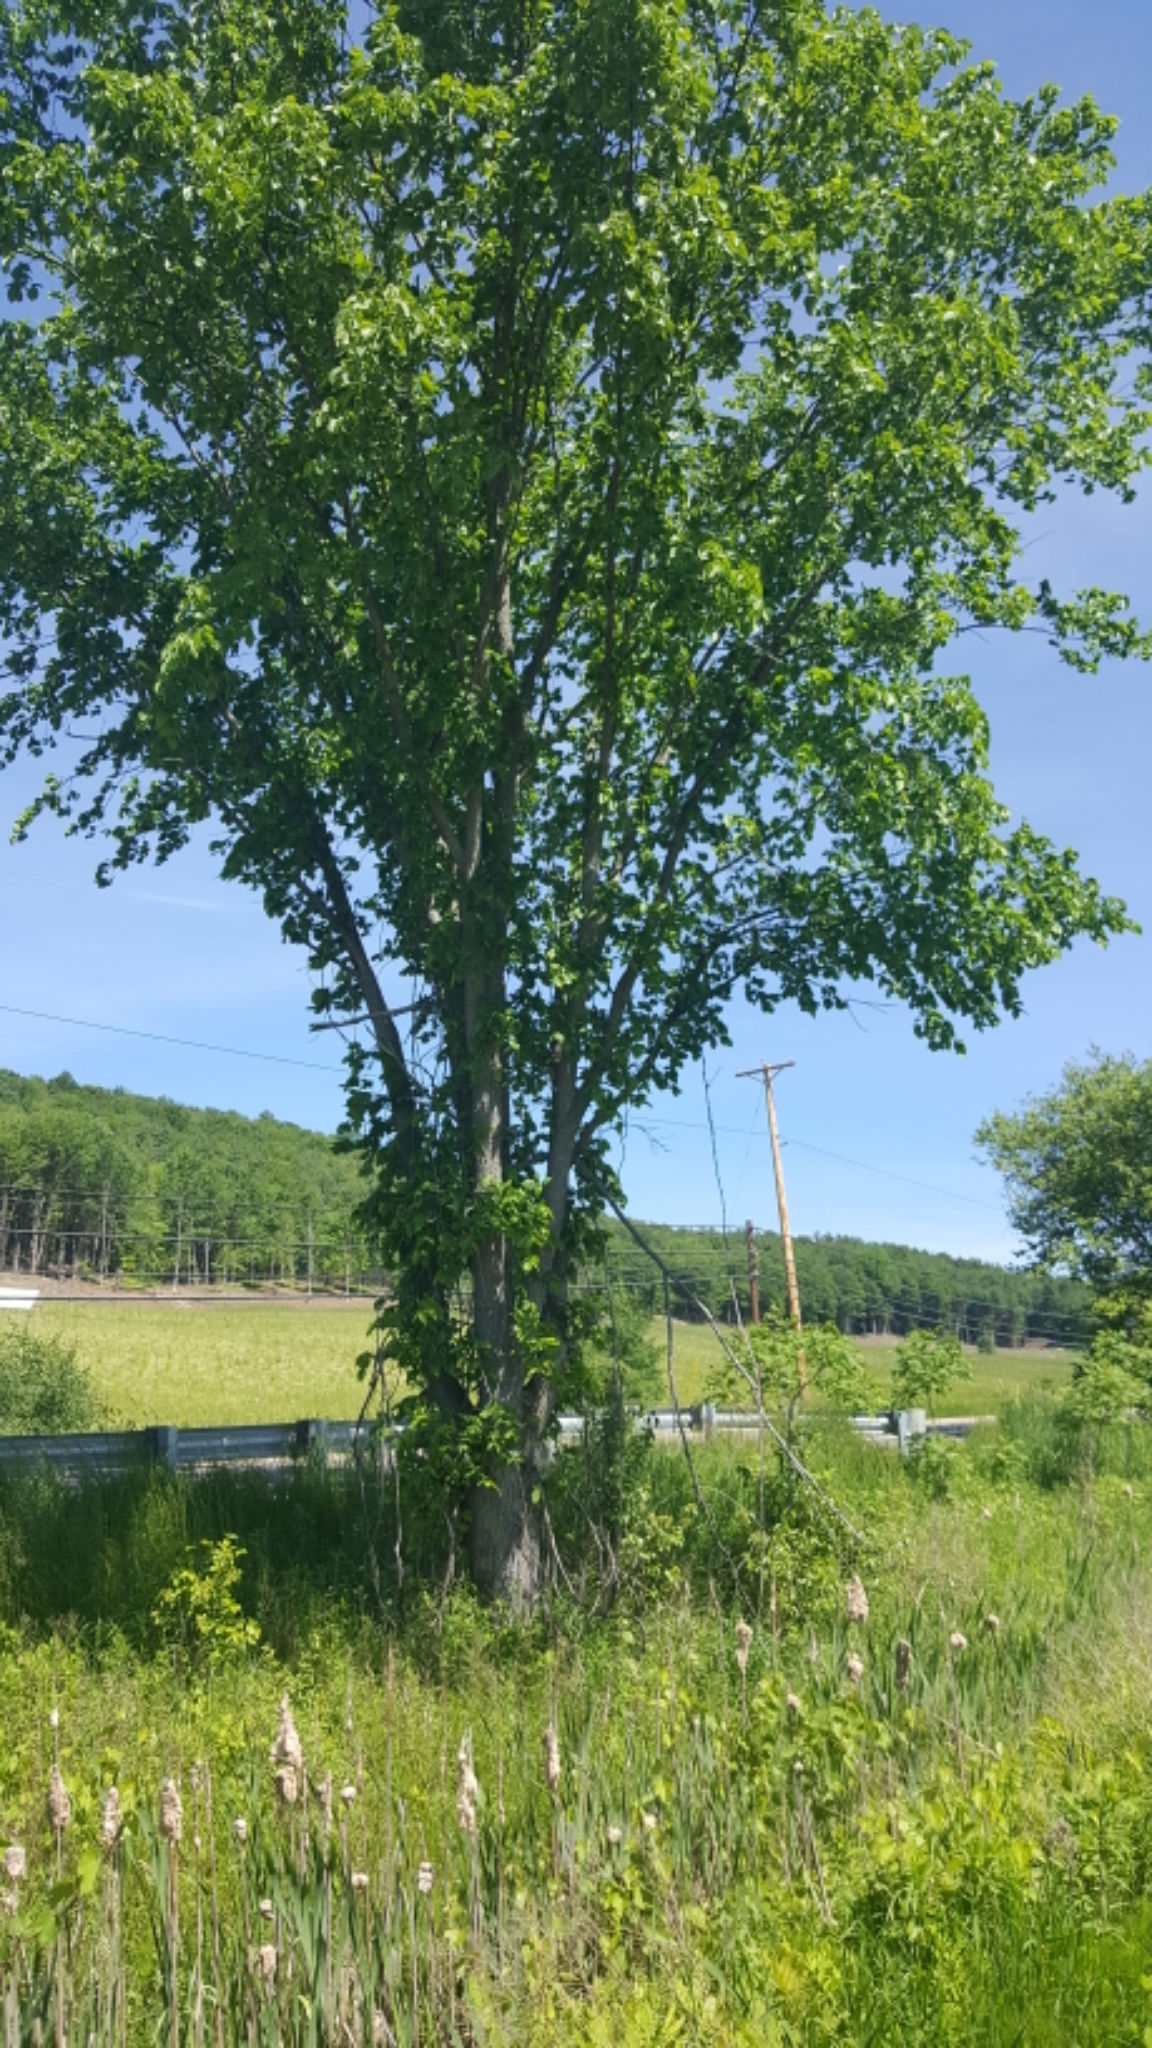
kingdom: Plantae
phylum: Tracheophyta
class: Magnoliopsida
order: Rosales
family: Ulmaceae
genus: Ulmus
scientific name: Ulmus americana
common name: American elm
